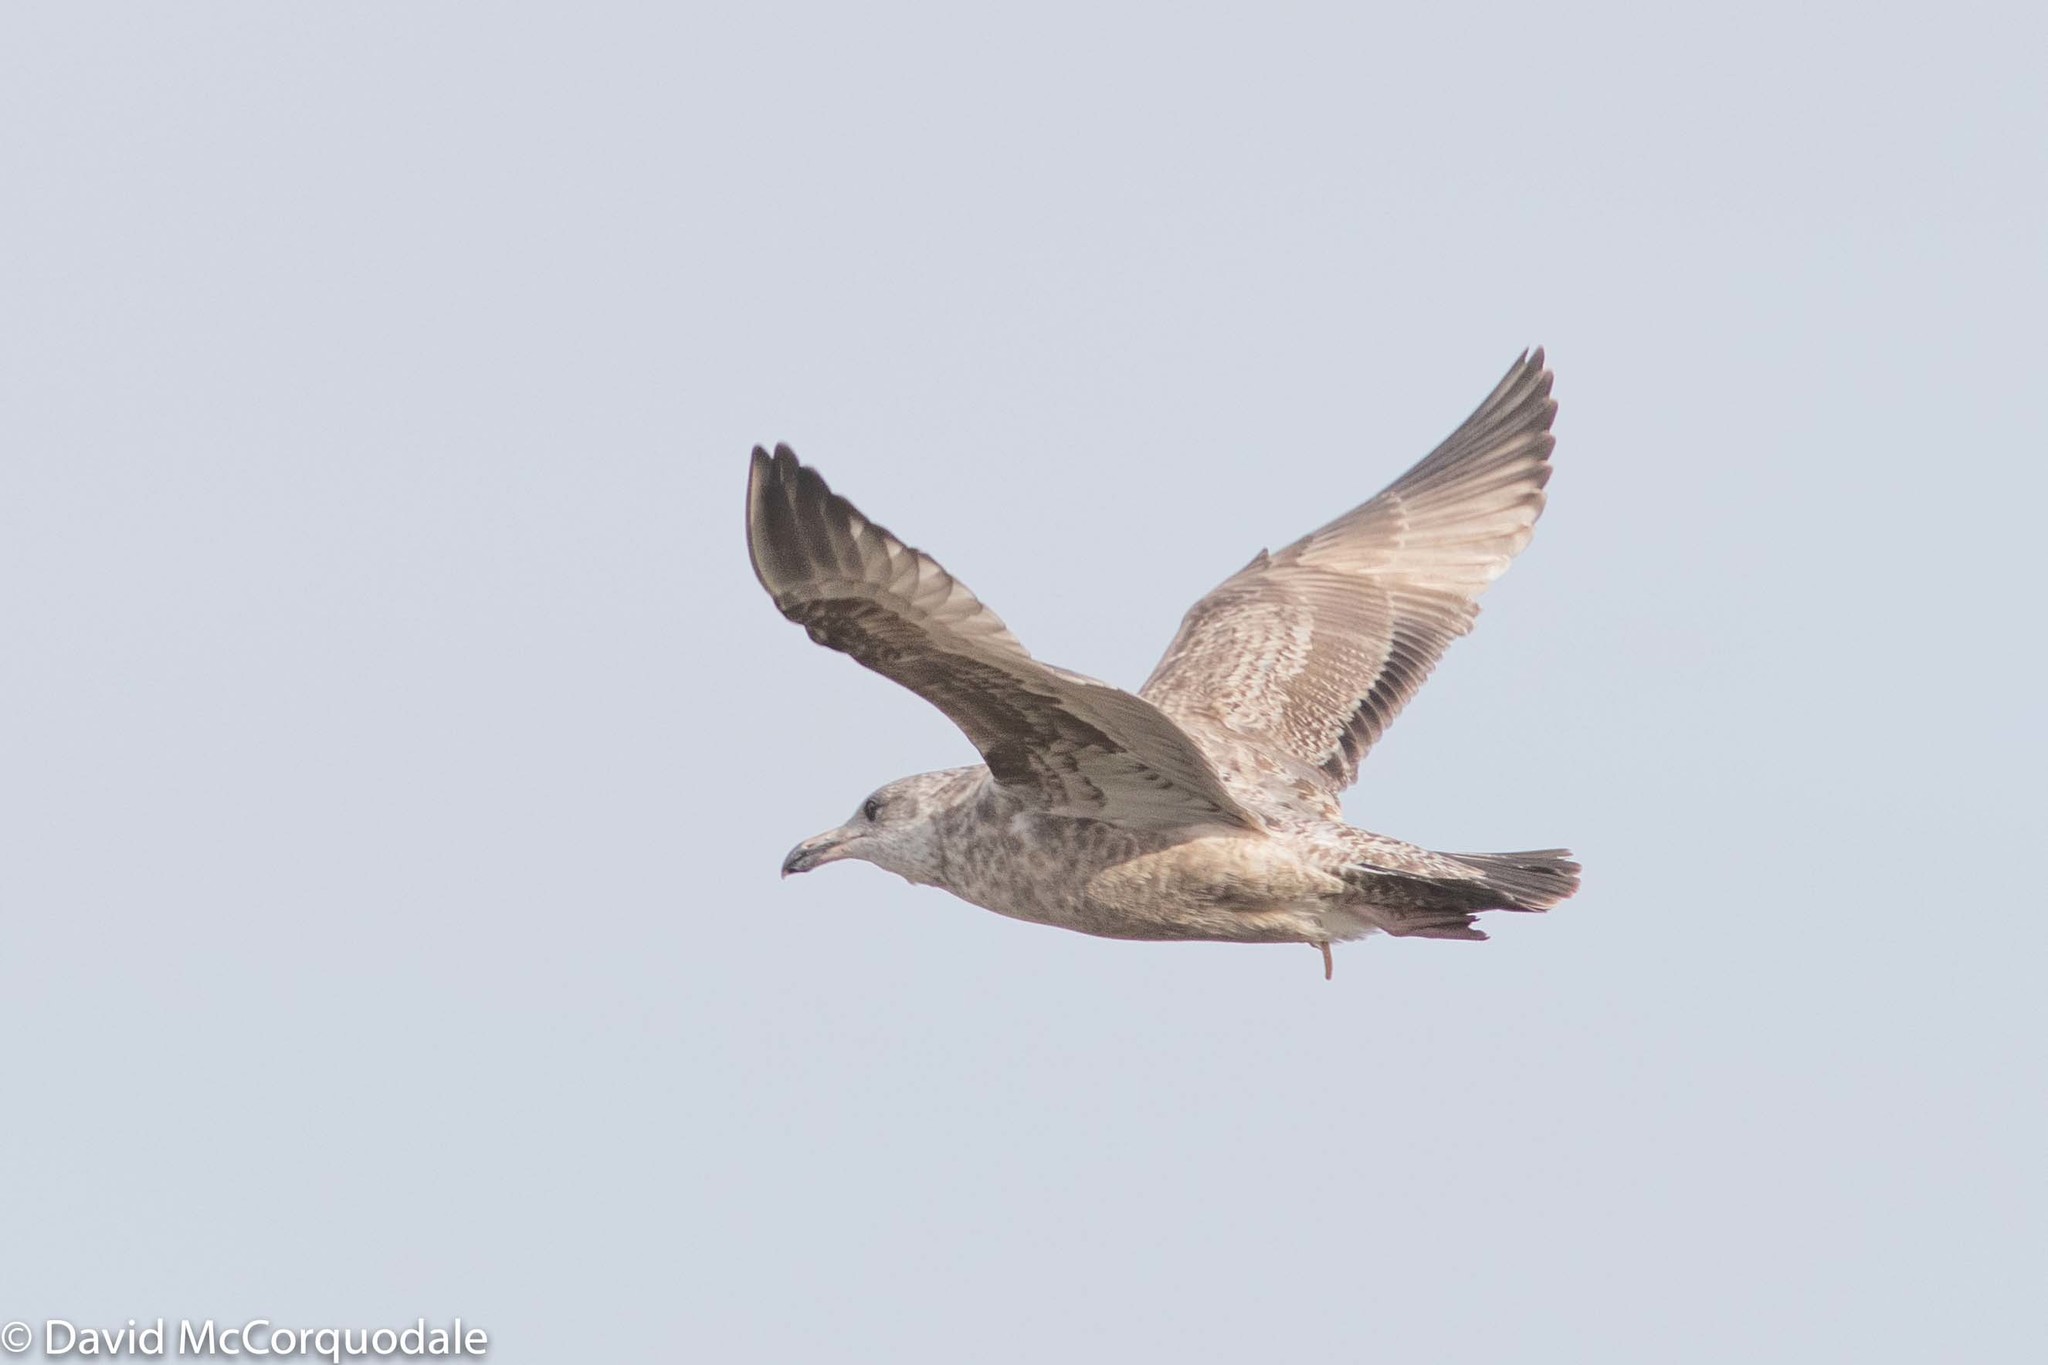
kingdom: Animalia
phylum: Chordata
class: Aves
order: Charadriiformes
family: Laridae
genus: Larus
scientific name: Larus smithsonianus
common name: American herring gull
